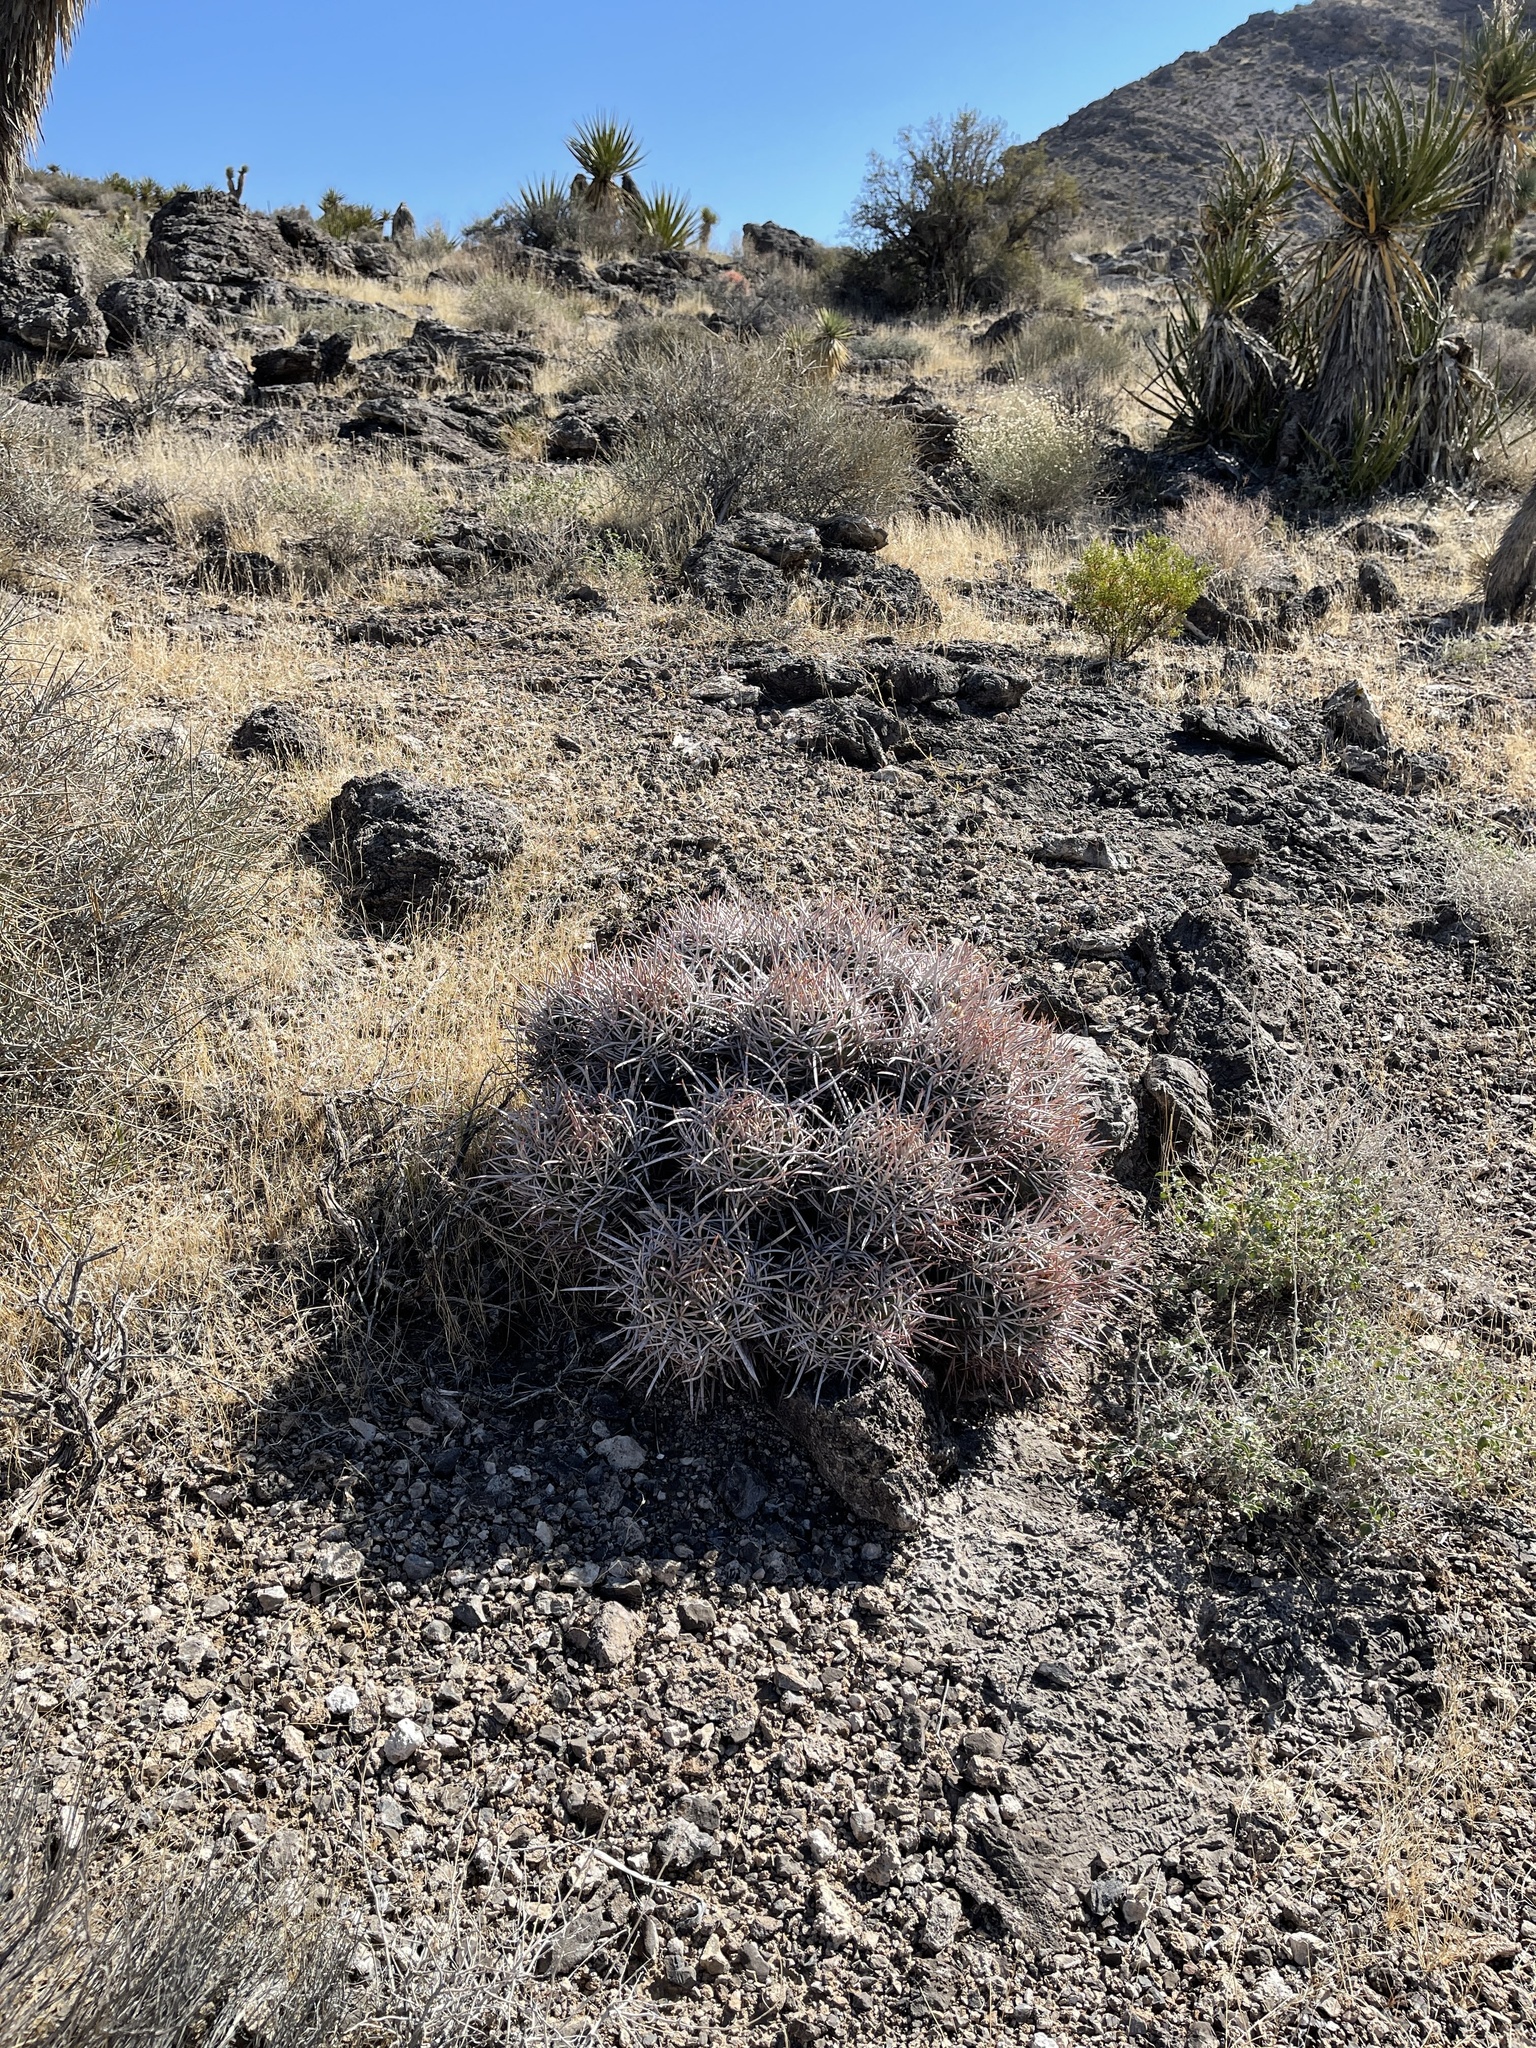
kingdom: Plantae
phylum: Tracheophyta
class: Magnoliopsida
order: Caryophyllales
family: Cactaceae
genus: Echinocactus
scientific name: Echinocactus polycephalus
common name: Cottontop cactus
